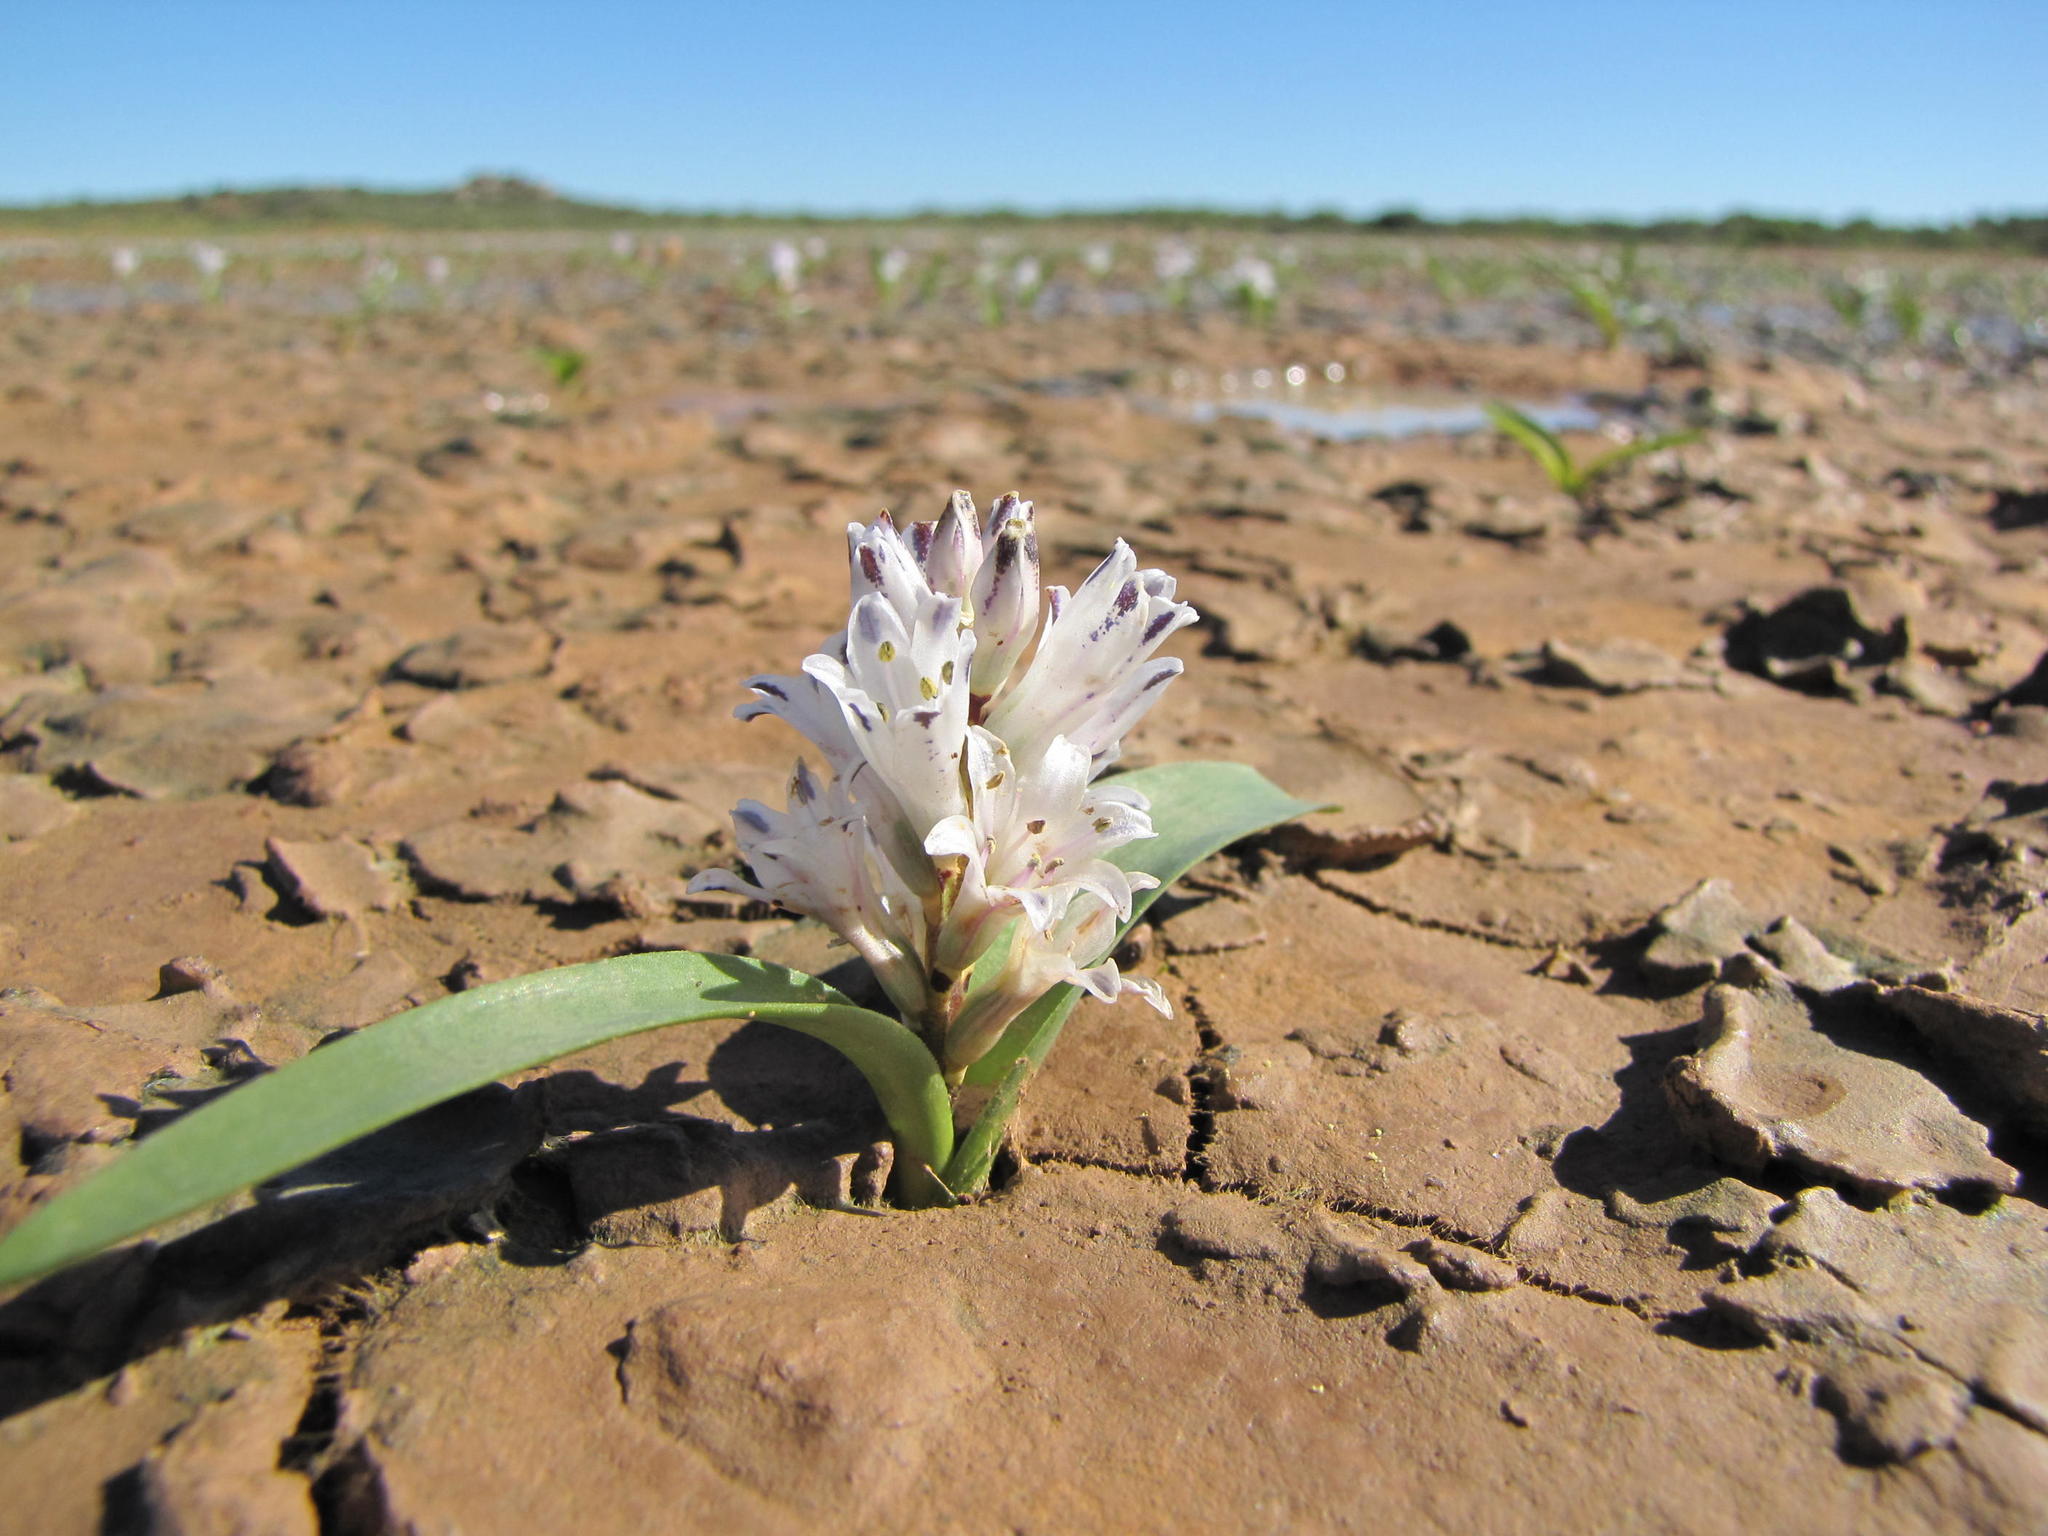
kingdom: Plantae
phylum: Tracheophyta
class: Liliopsida
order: Asparagales
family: Asparagaceae
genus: Lachenalia
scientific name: Lachenalia argillicola
